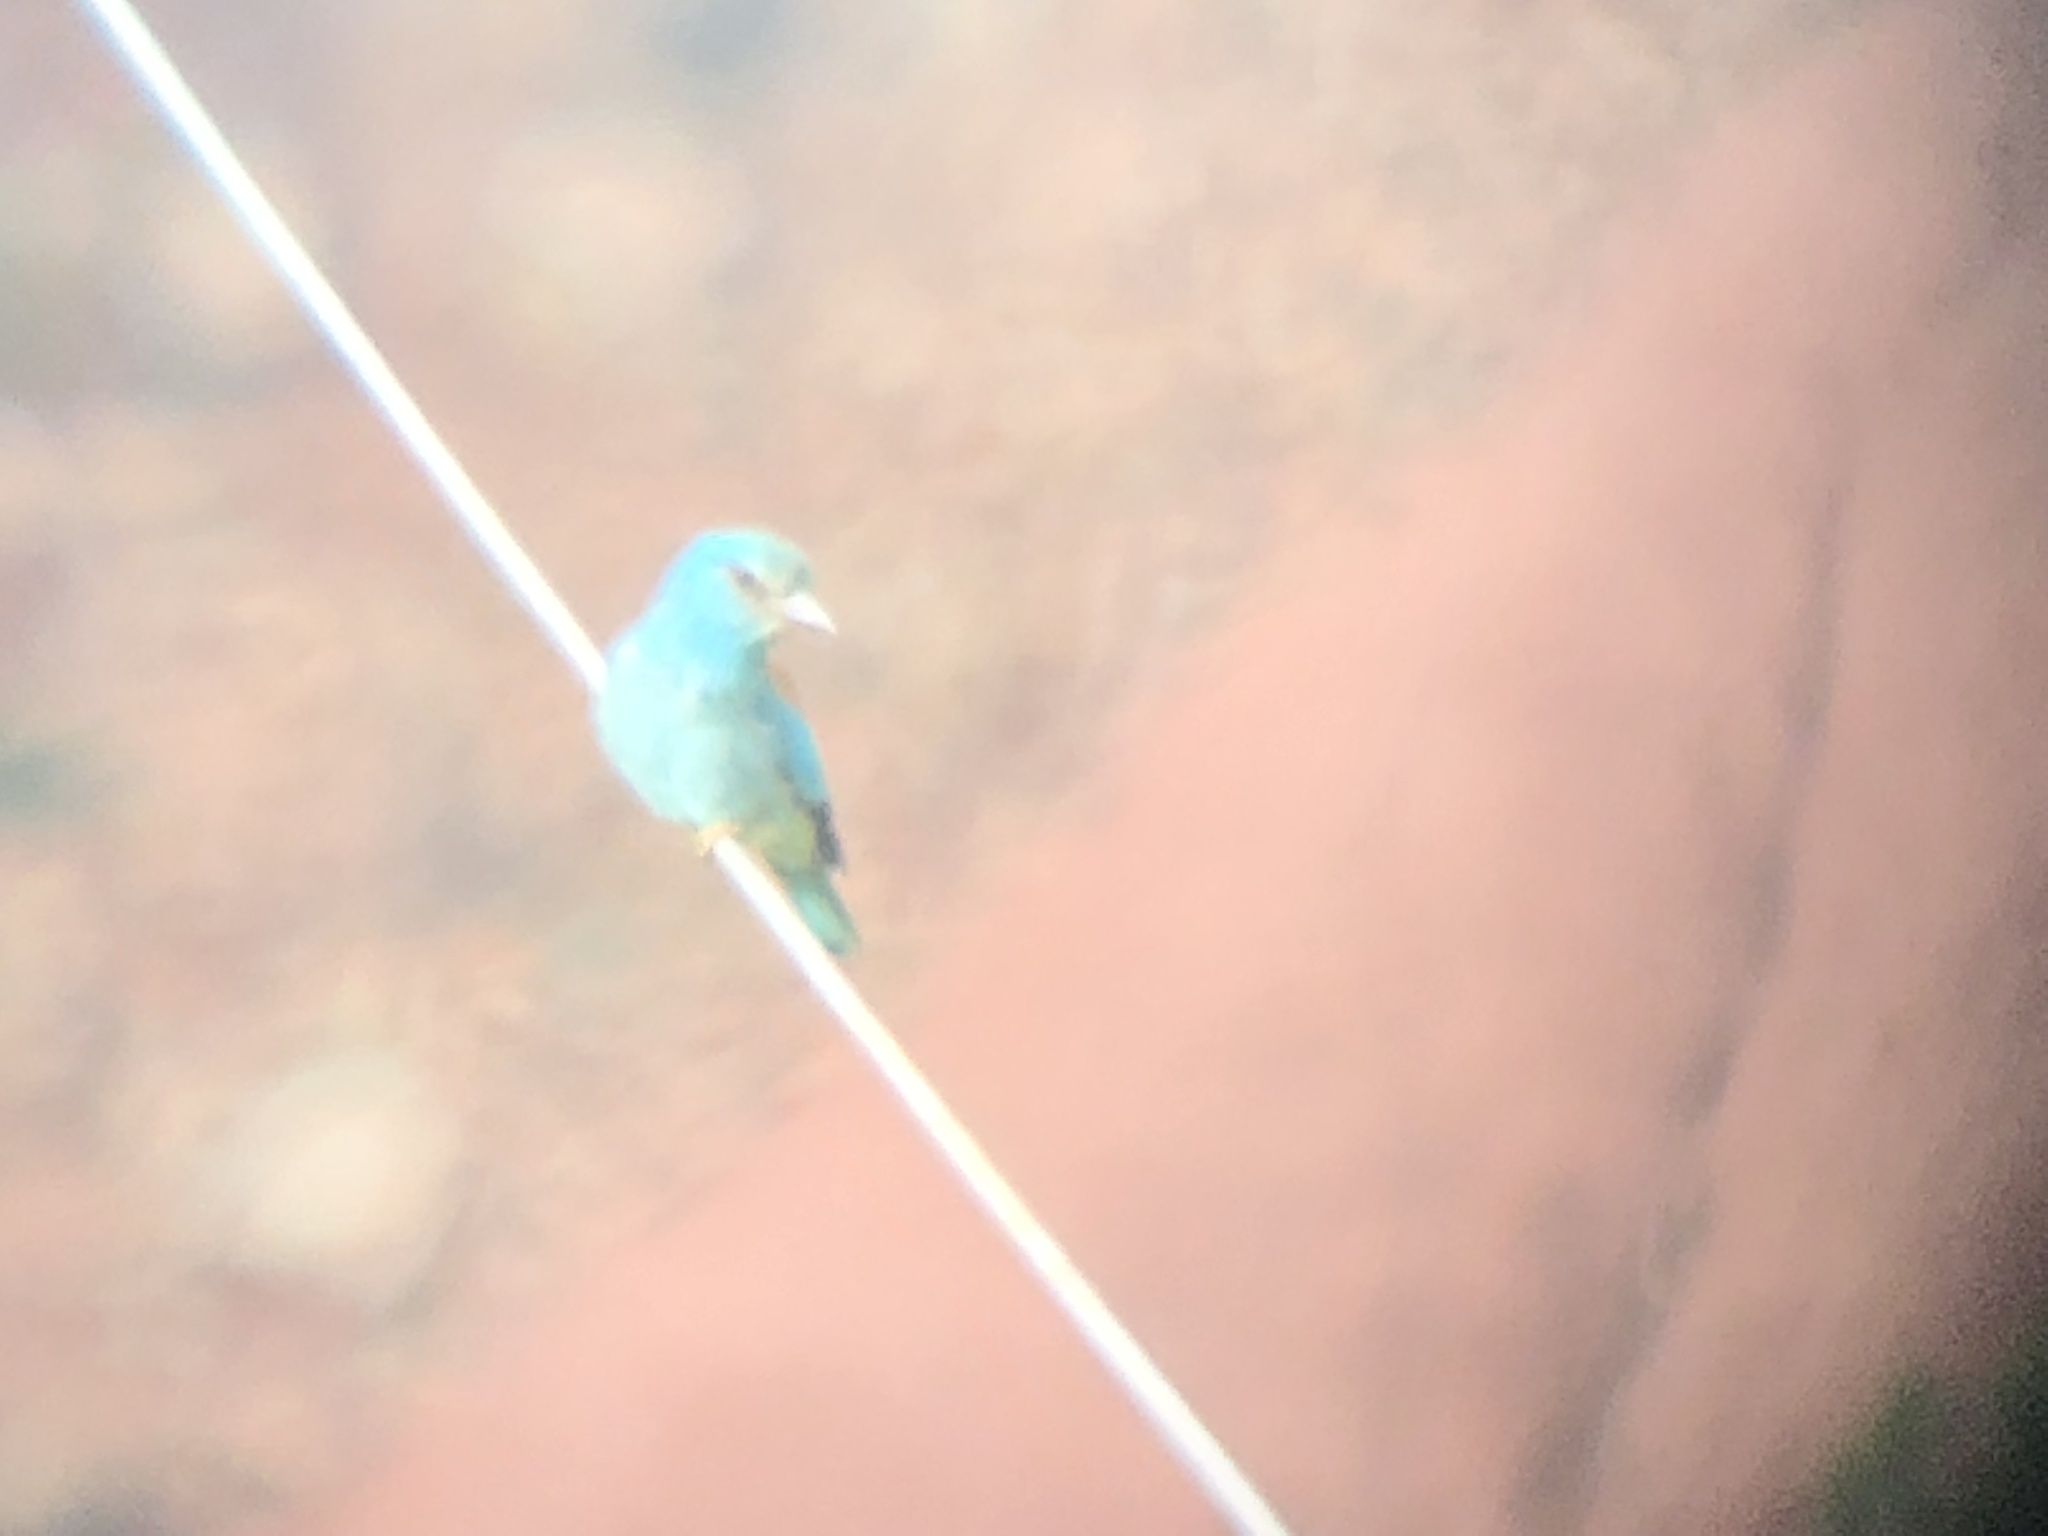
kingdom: Animalia
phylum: Chordata
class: Aves
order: Coraciiformes
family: Coraciidae
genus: Coracias
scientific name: Coracias garrulus
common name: European roller
